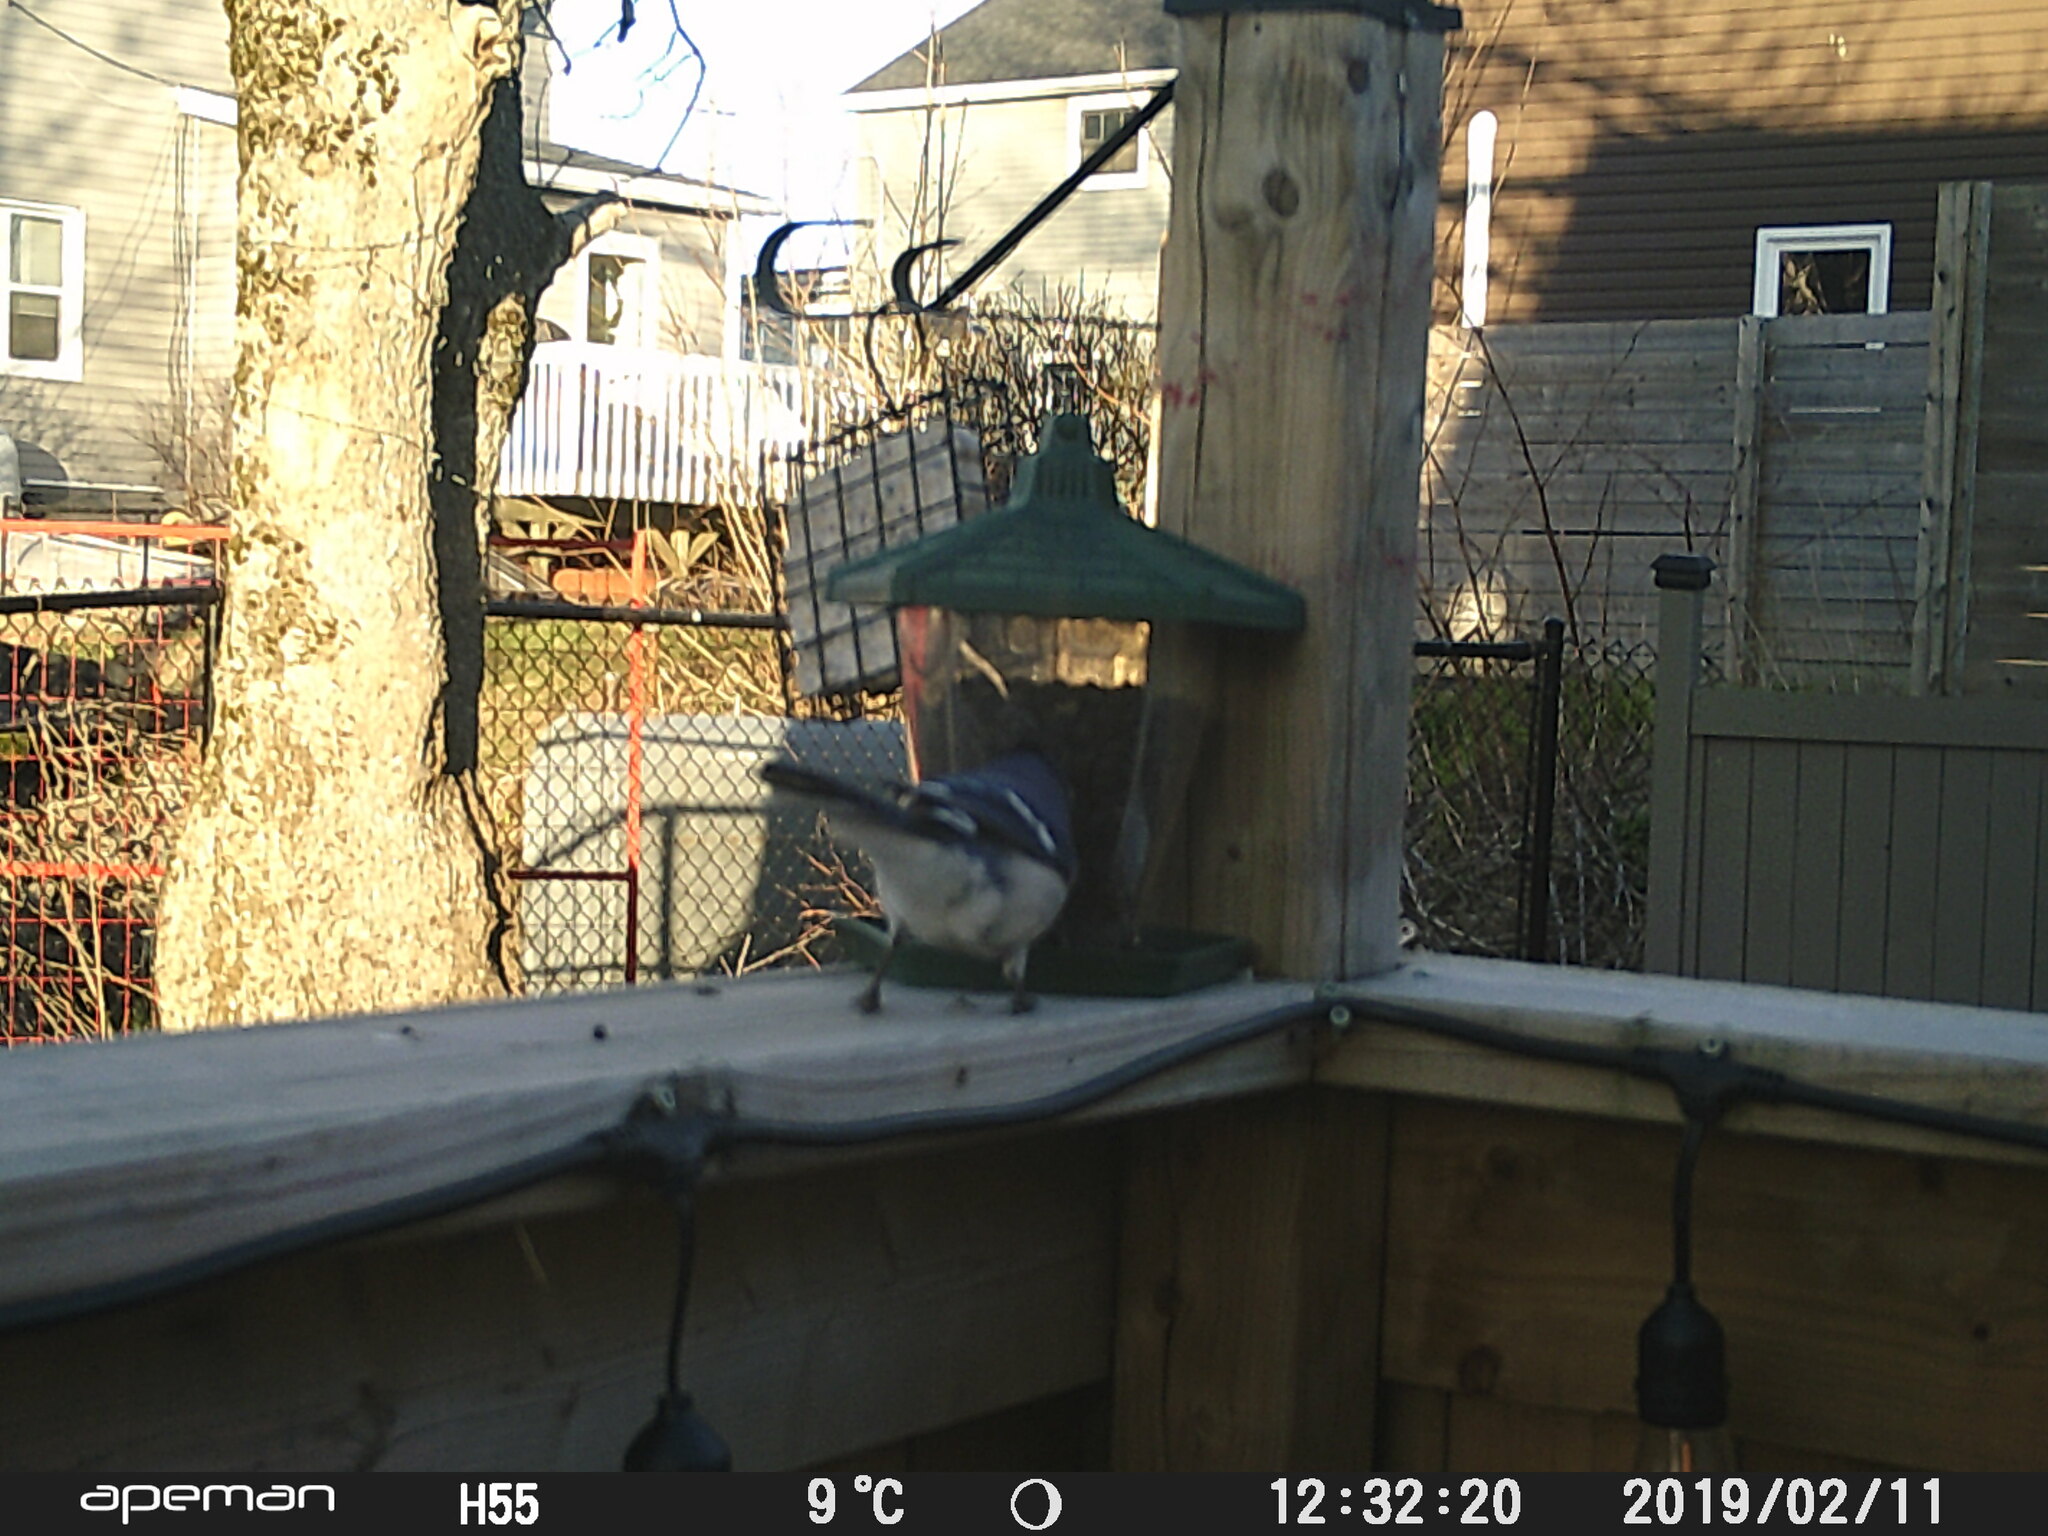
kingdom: Animalia
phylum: Chordata
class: Aves
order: Passeriformes
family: Corvidae
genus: Cyanocitta
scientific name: Cyanocitta cristata
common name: Blue jay
